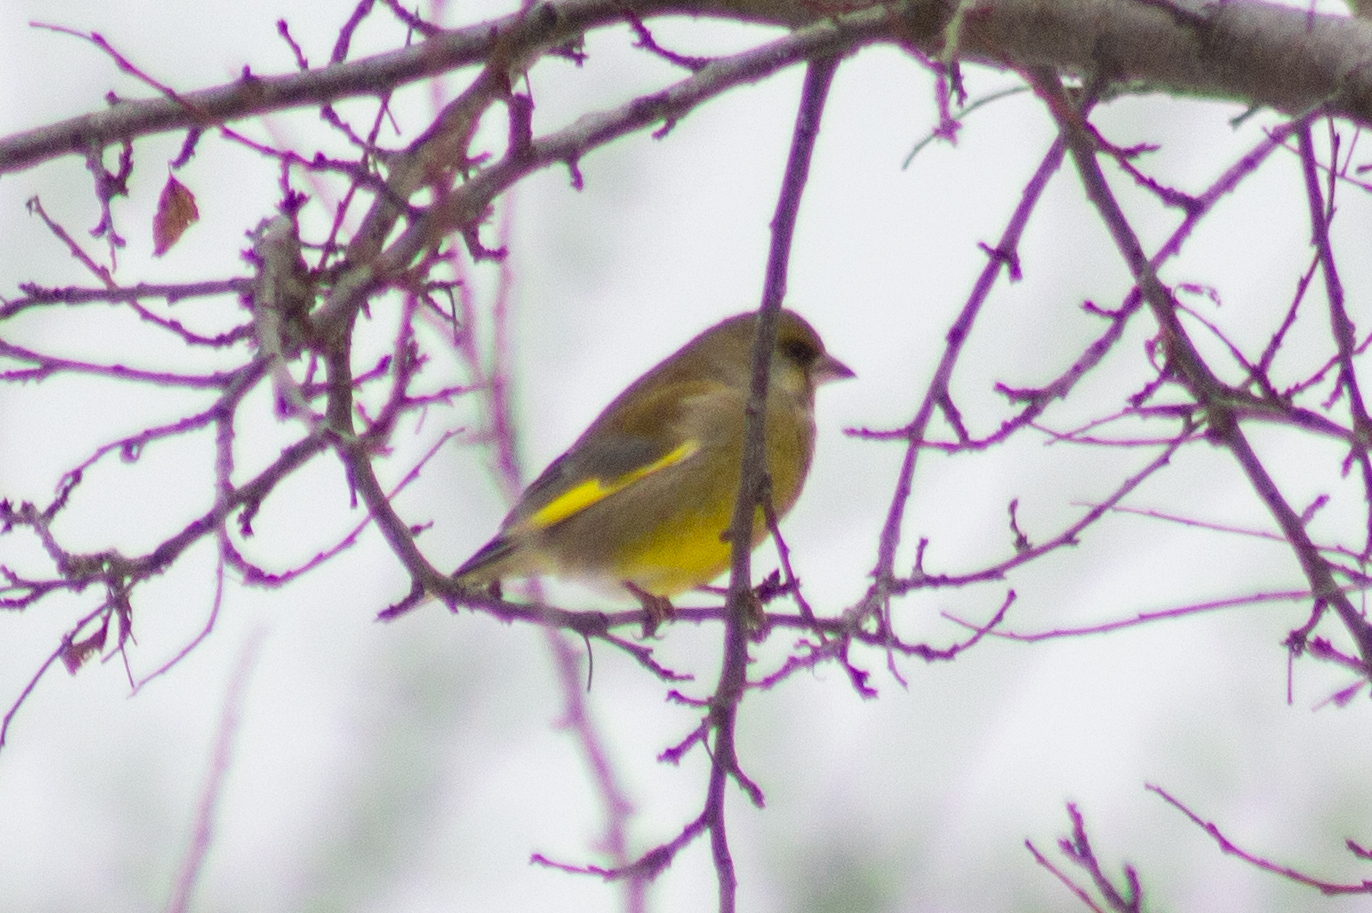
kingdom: Plantae
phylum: Tracheophyta
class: Liliopsida
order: Poales
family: Poaceae
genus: Chloris
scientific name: Chloris chloris
